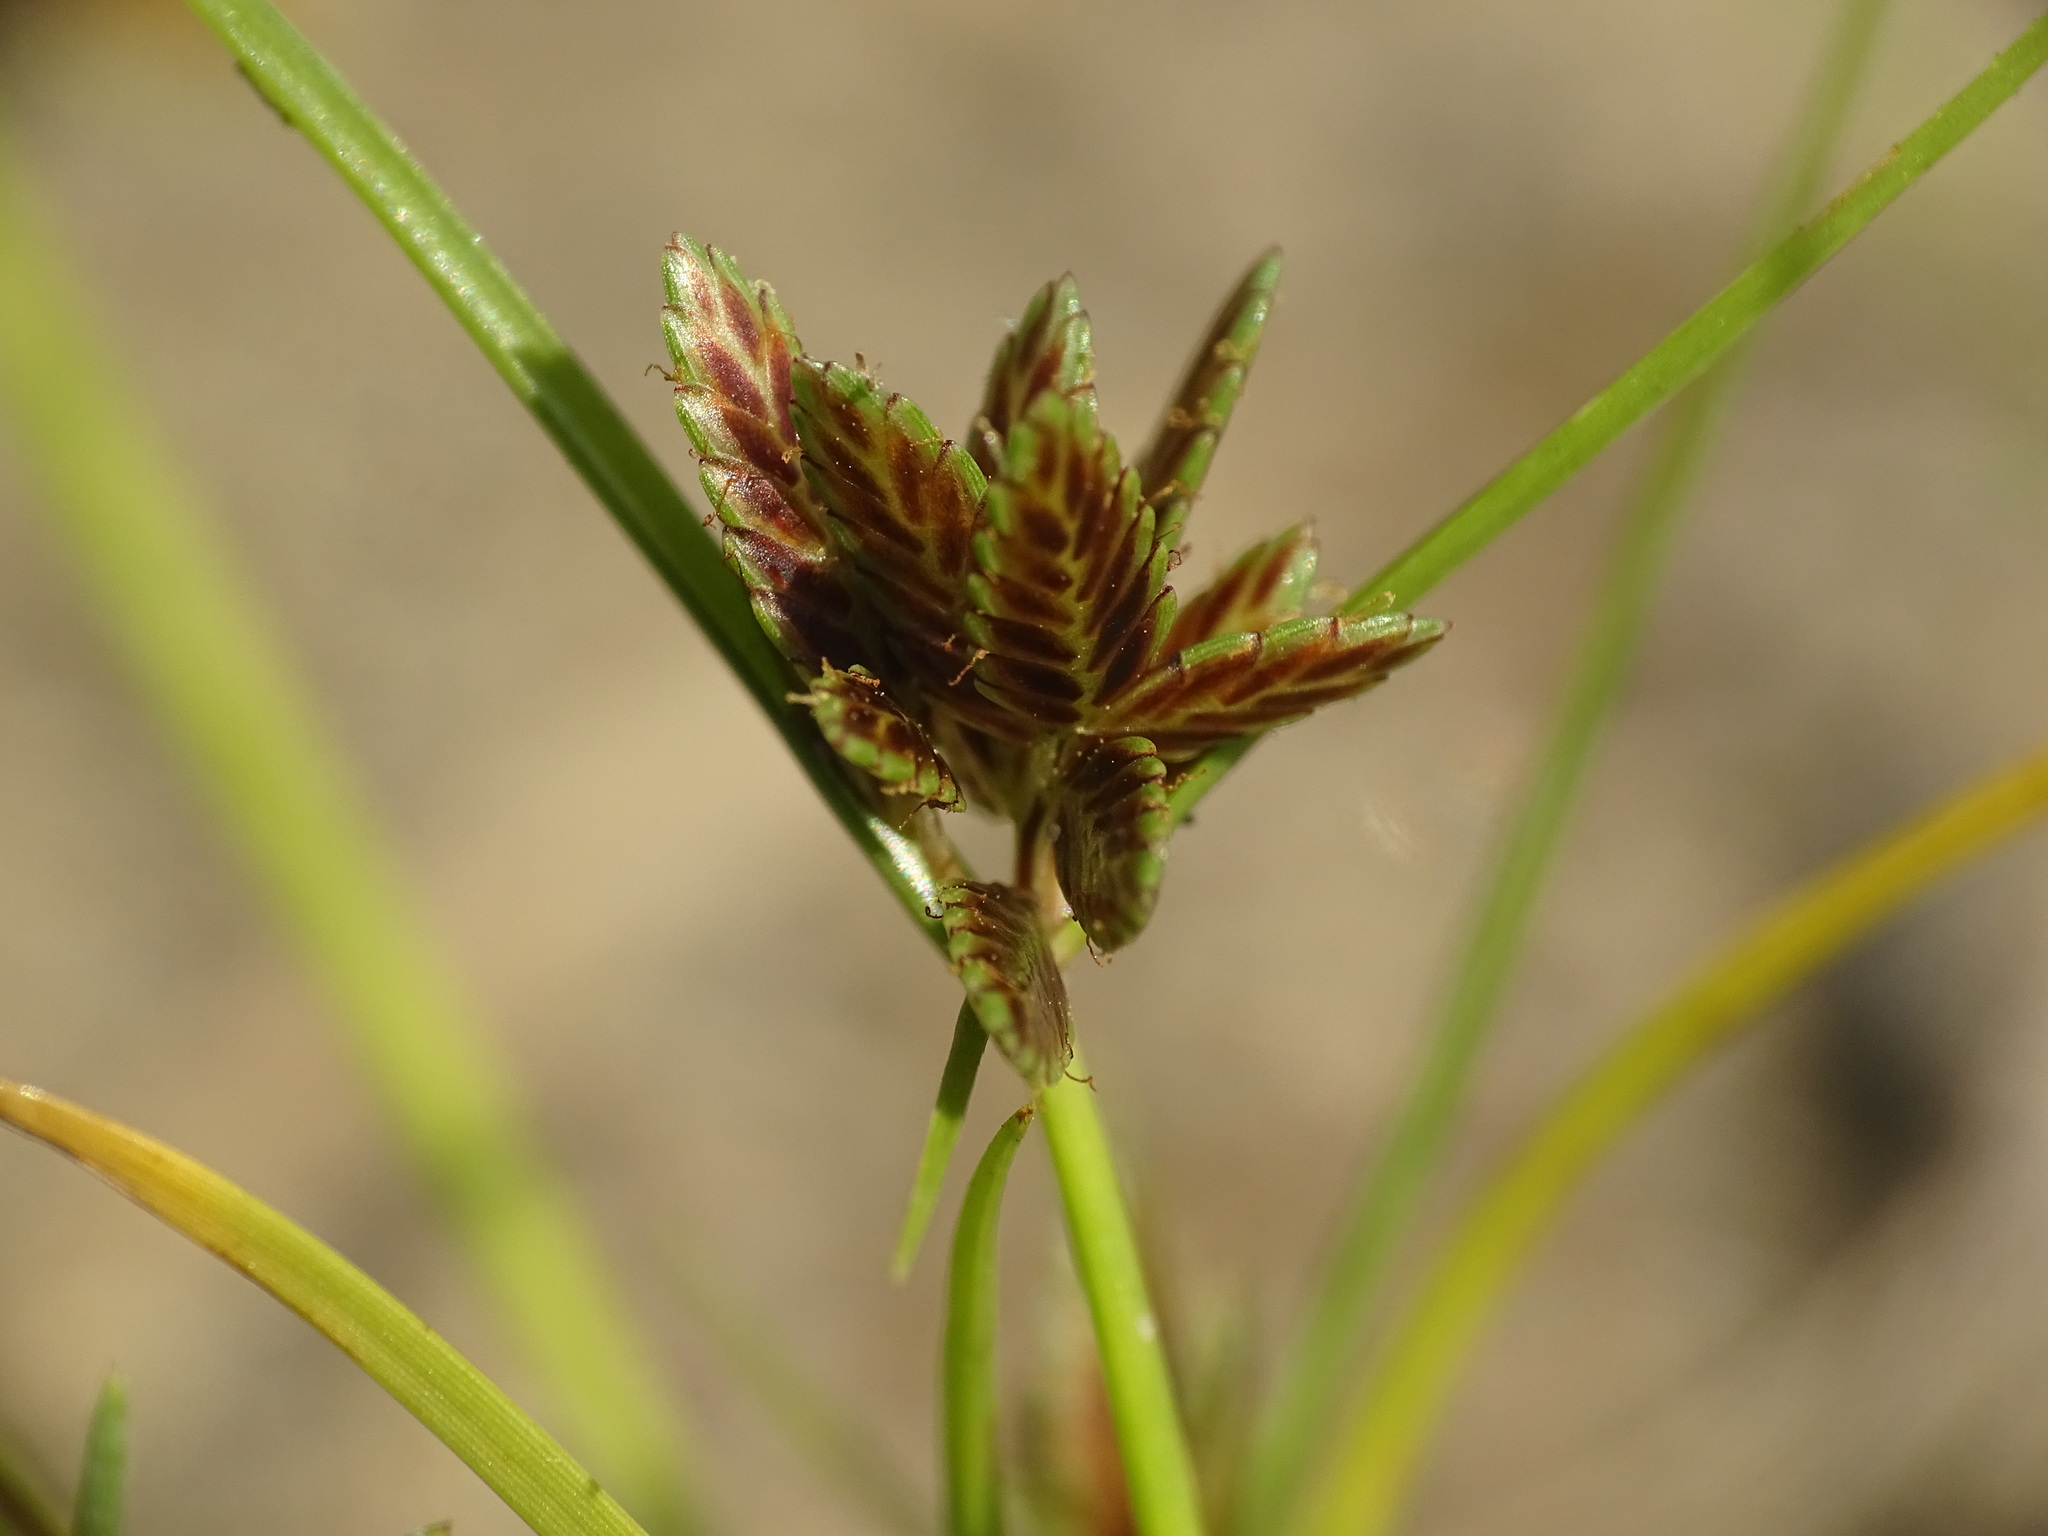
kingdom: Plantae
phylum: Tracheophyta
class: Liliopsida
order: Poales
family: Cyperaceae
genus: Cyperus
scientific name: Cyperus bipartitus
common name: Brook flatsedge
